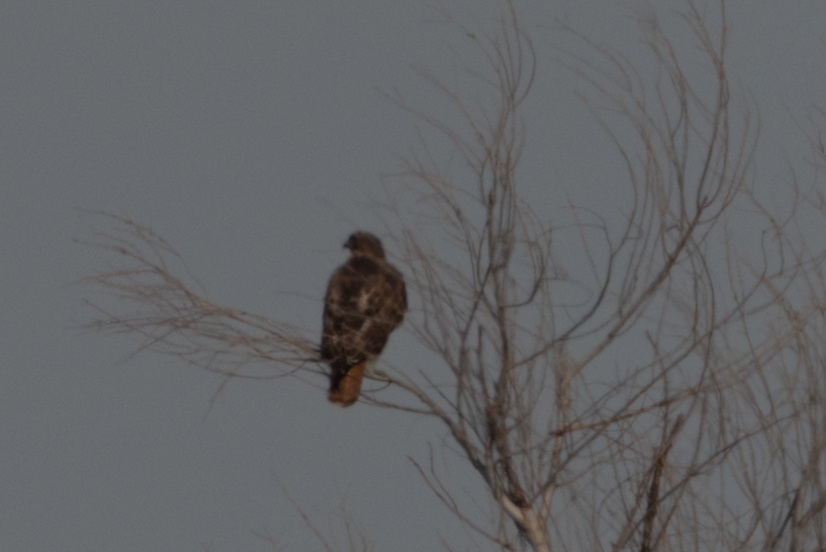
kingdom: Animalia
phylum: Chordata
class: Aves
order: Accipitriformes
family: Accipitridae
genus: Buteo
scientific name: Buteo jamaicensis
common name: Red-tailed hawk
